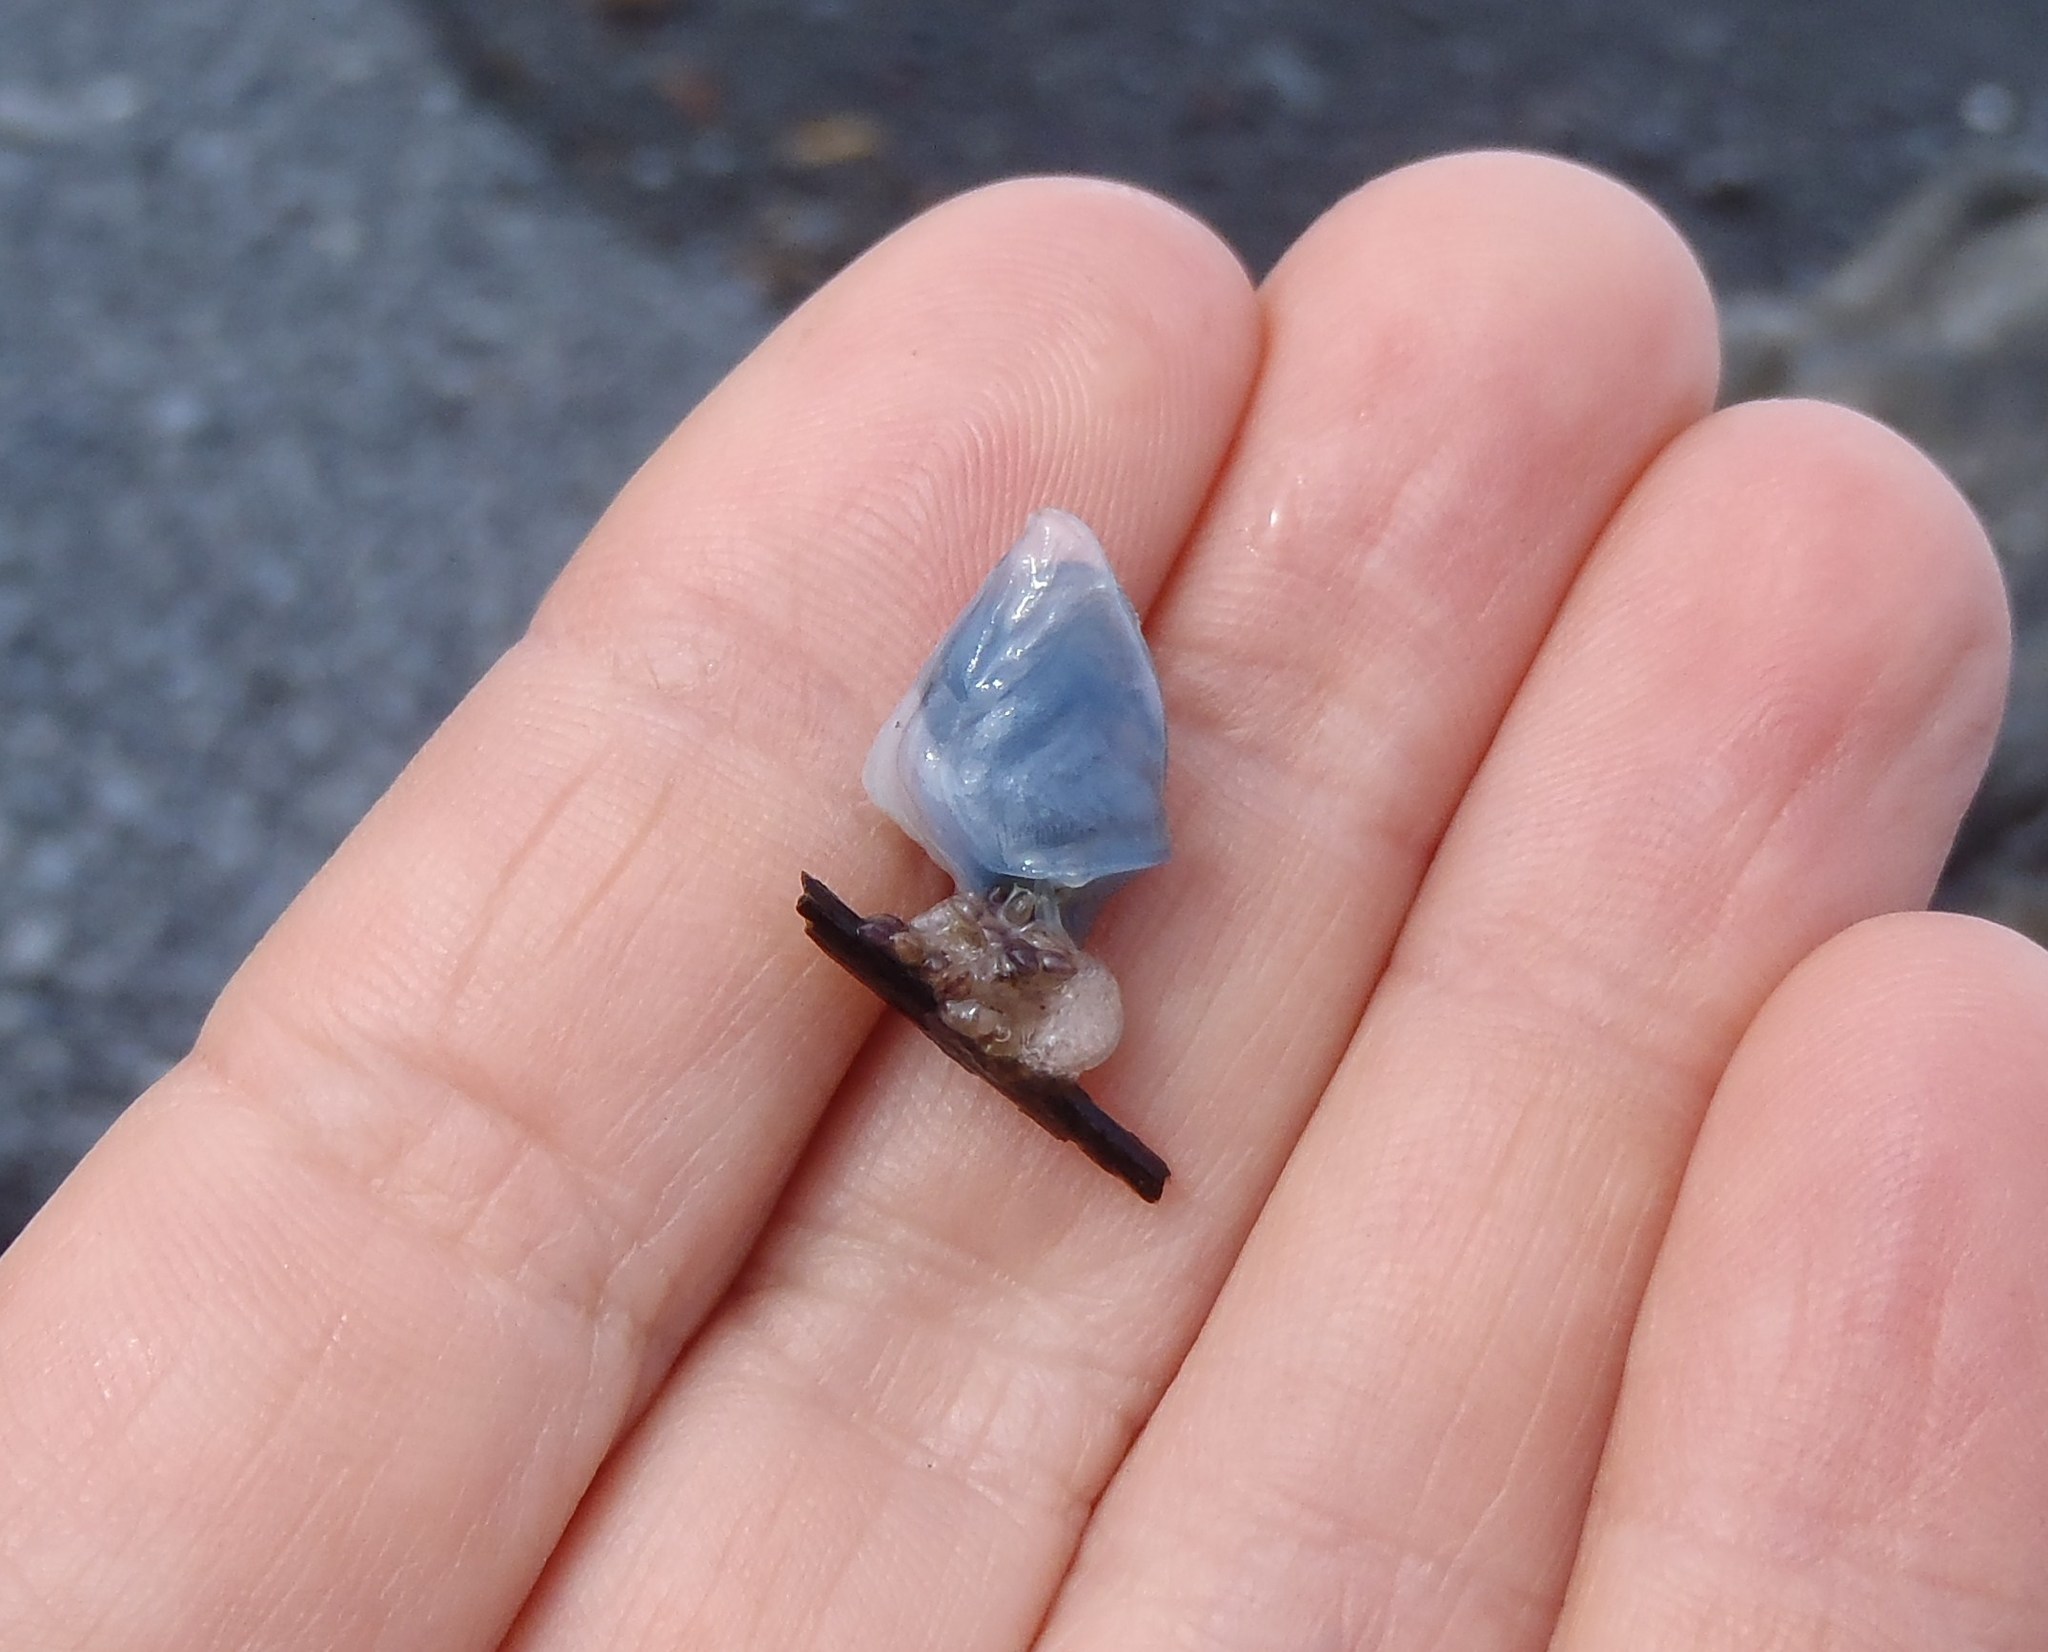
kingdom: Animalia
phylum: Arthropoda
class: Maxillopoda
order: Pedunculata
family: Lepadidae
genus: Dosima
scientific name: Dosima fascicularis
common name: Buoy barnacle
